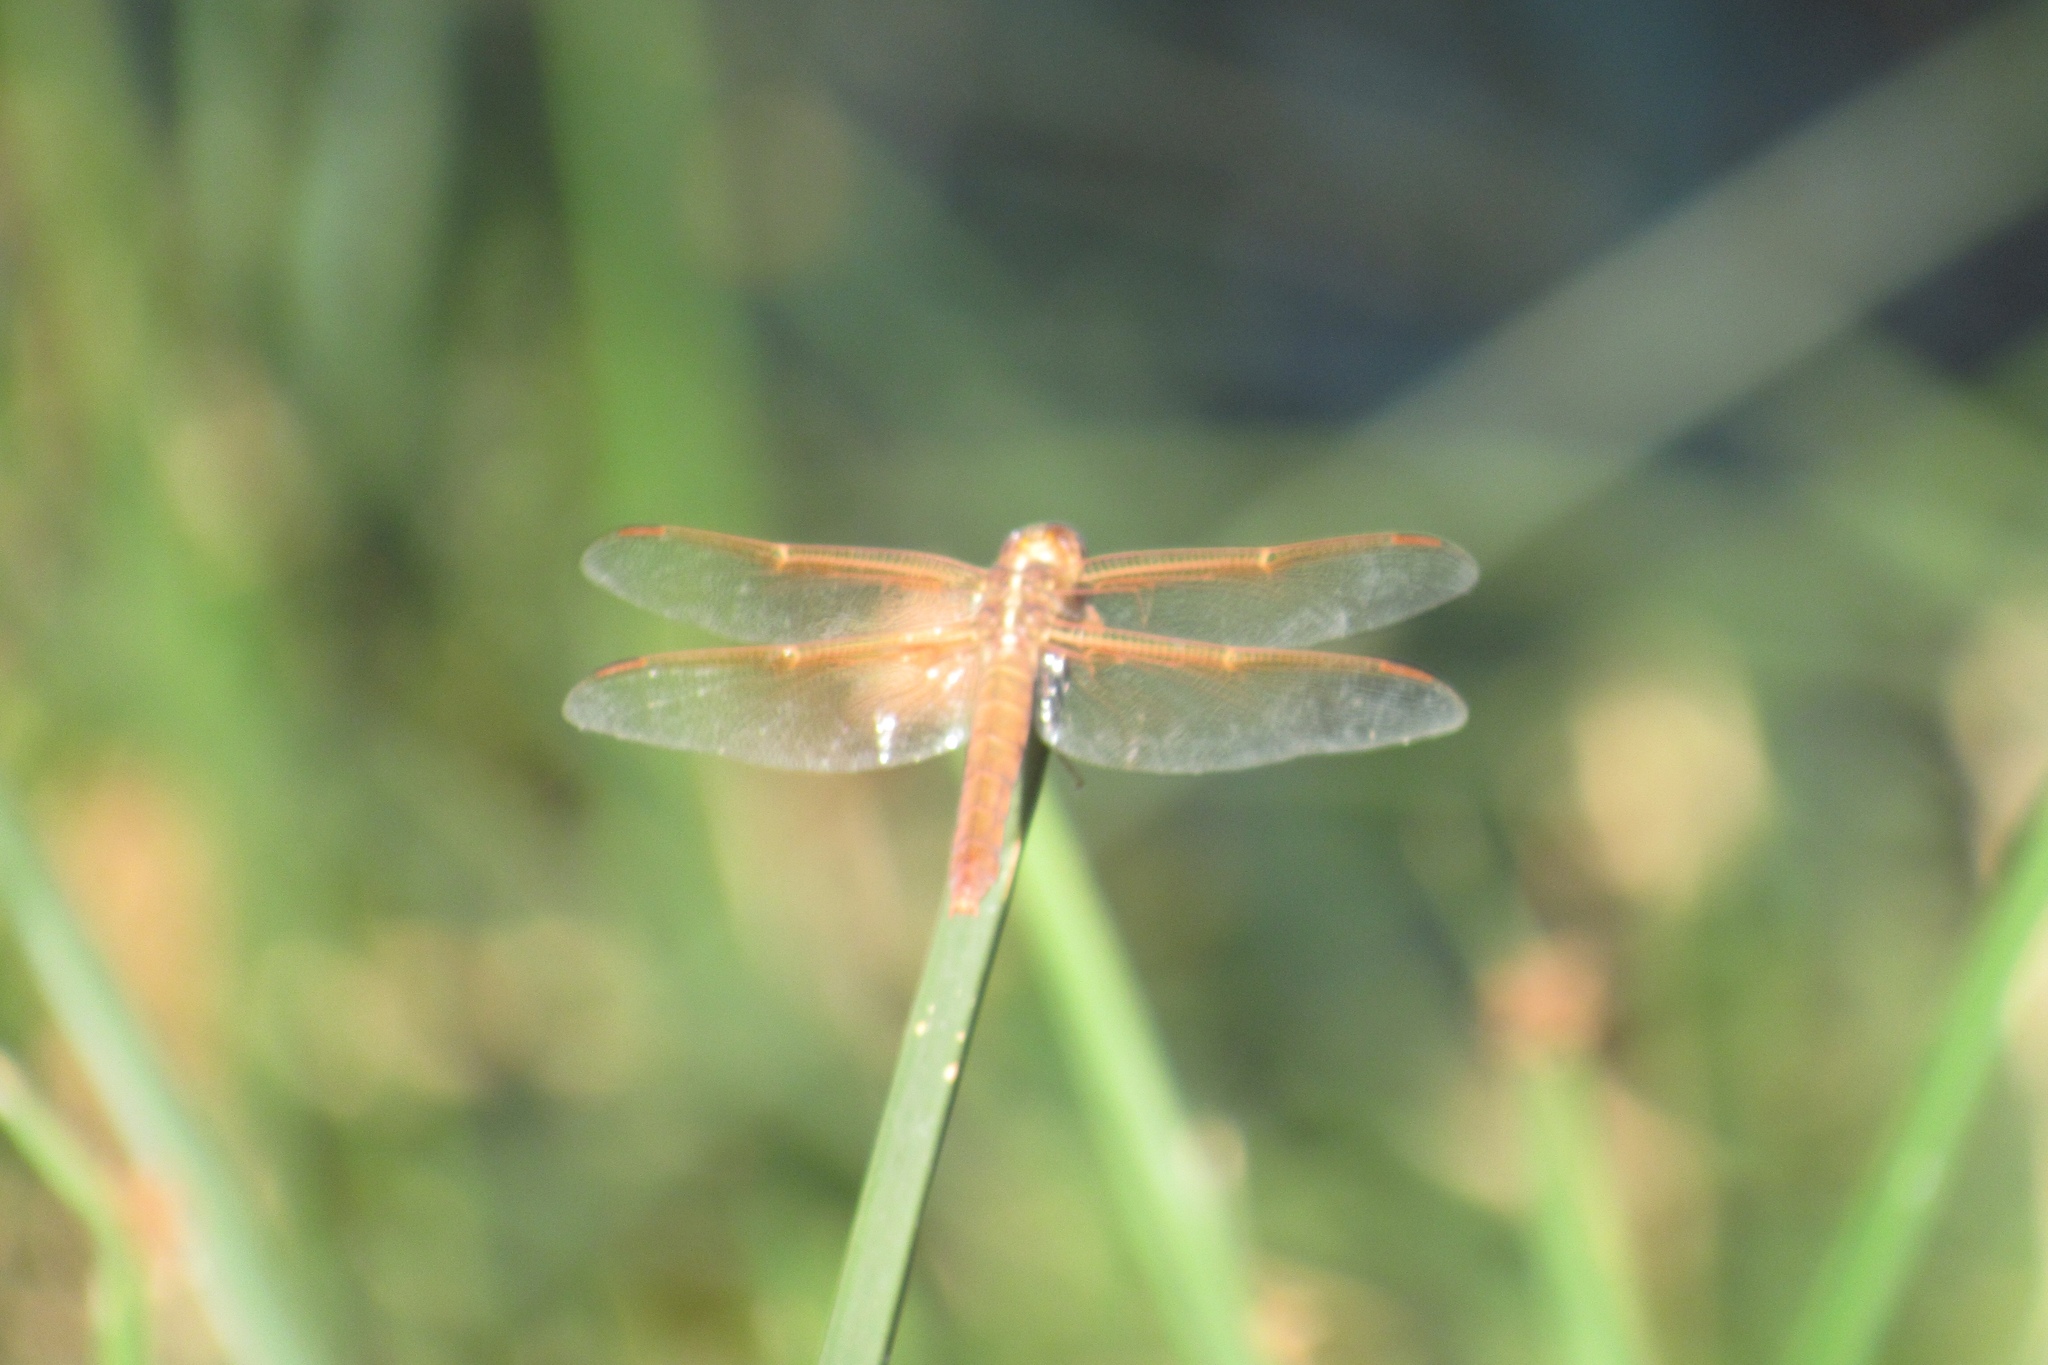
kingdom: Animalia
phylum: Arthropoda
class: Insecta
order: Odonata
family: Libellulidae
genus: Libellula
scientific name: Libellula saturata
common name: Flame skimmer
